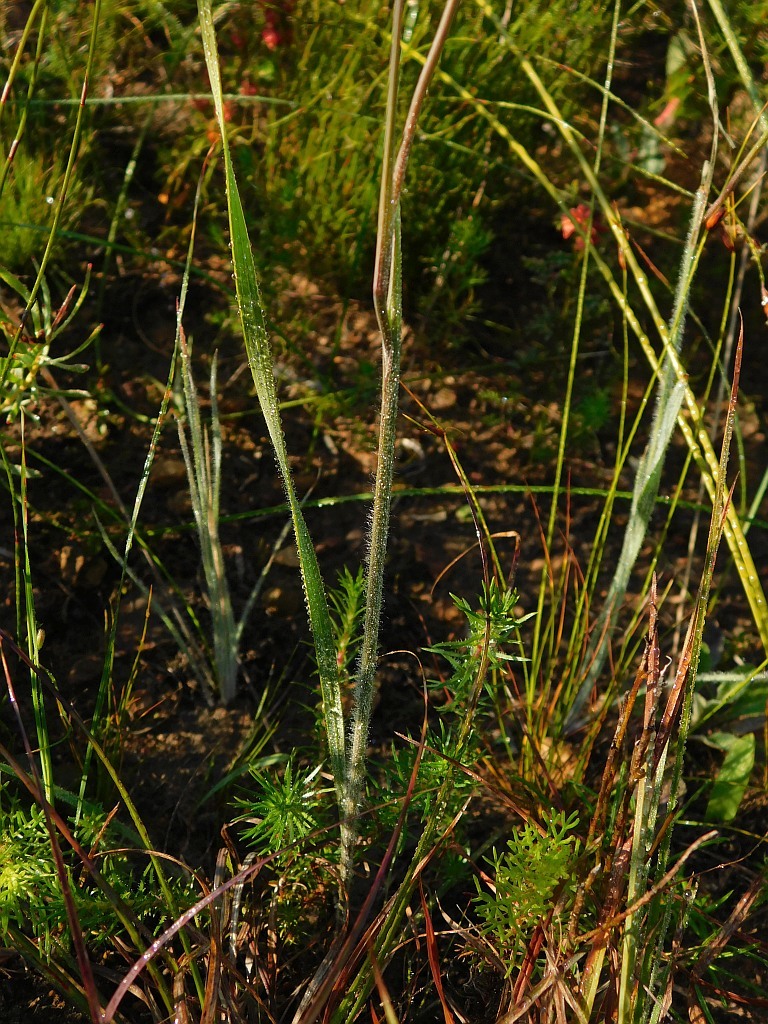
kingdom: Plantae
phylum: Tracheophyta
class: Liliopsida
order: Asparagales
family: Iridaceae
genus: Gladiolus
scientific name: Gladiolus hirsutus
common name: Small pink afrikaner
